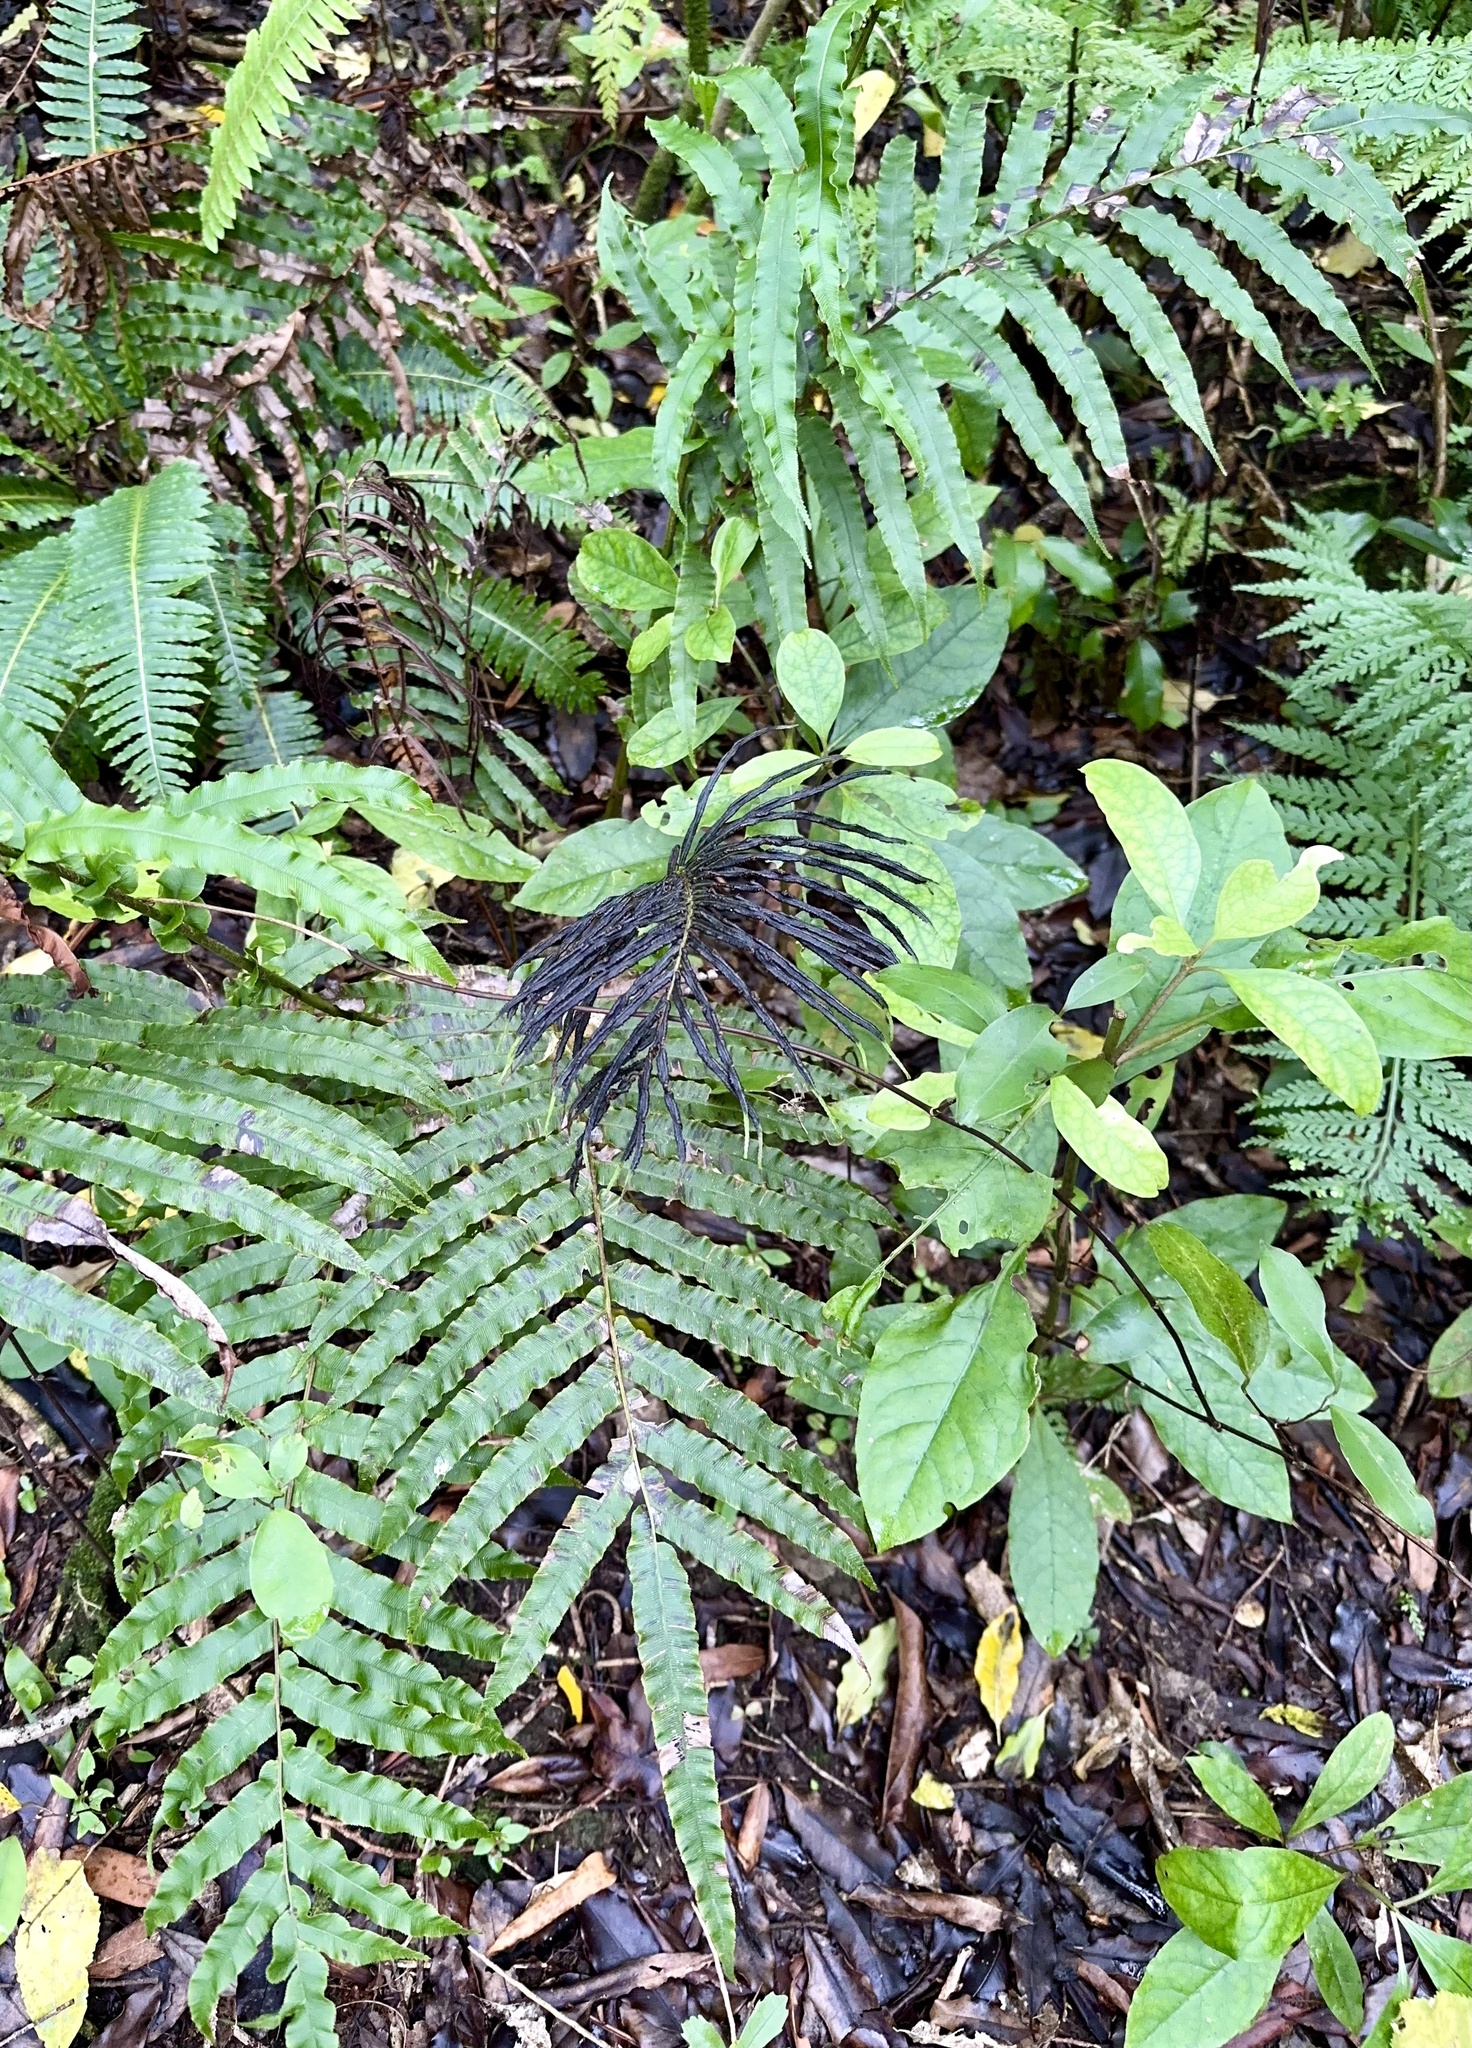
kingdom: Plantae
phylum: Tracheophyta
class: Polypodiopsida
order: Polypodiales
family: Blechnaceae
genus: Parablechnum
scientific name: Parablechnum novae-zelandiae
